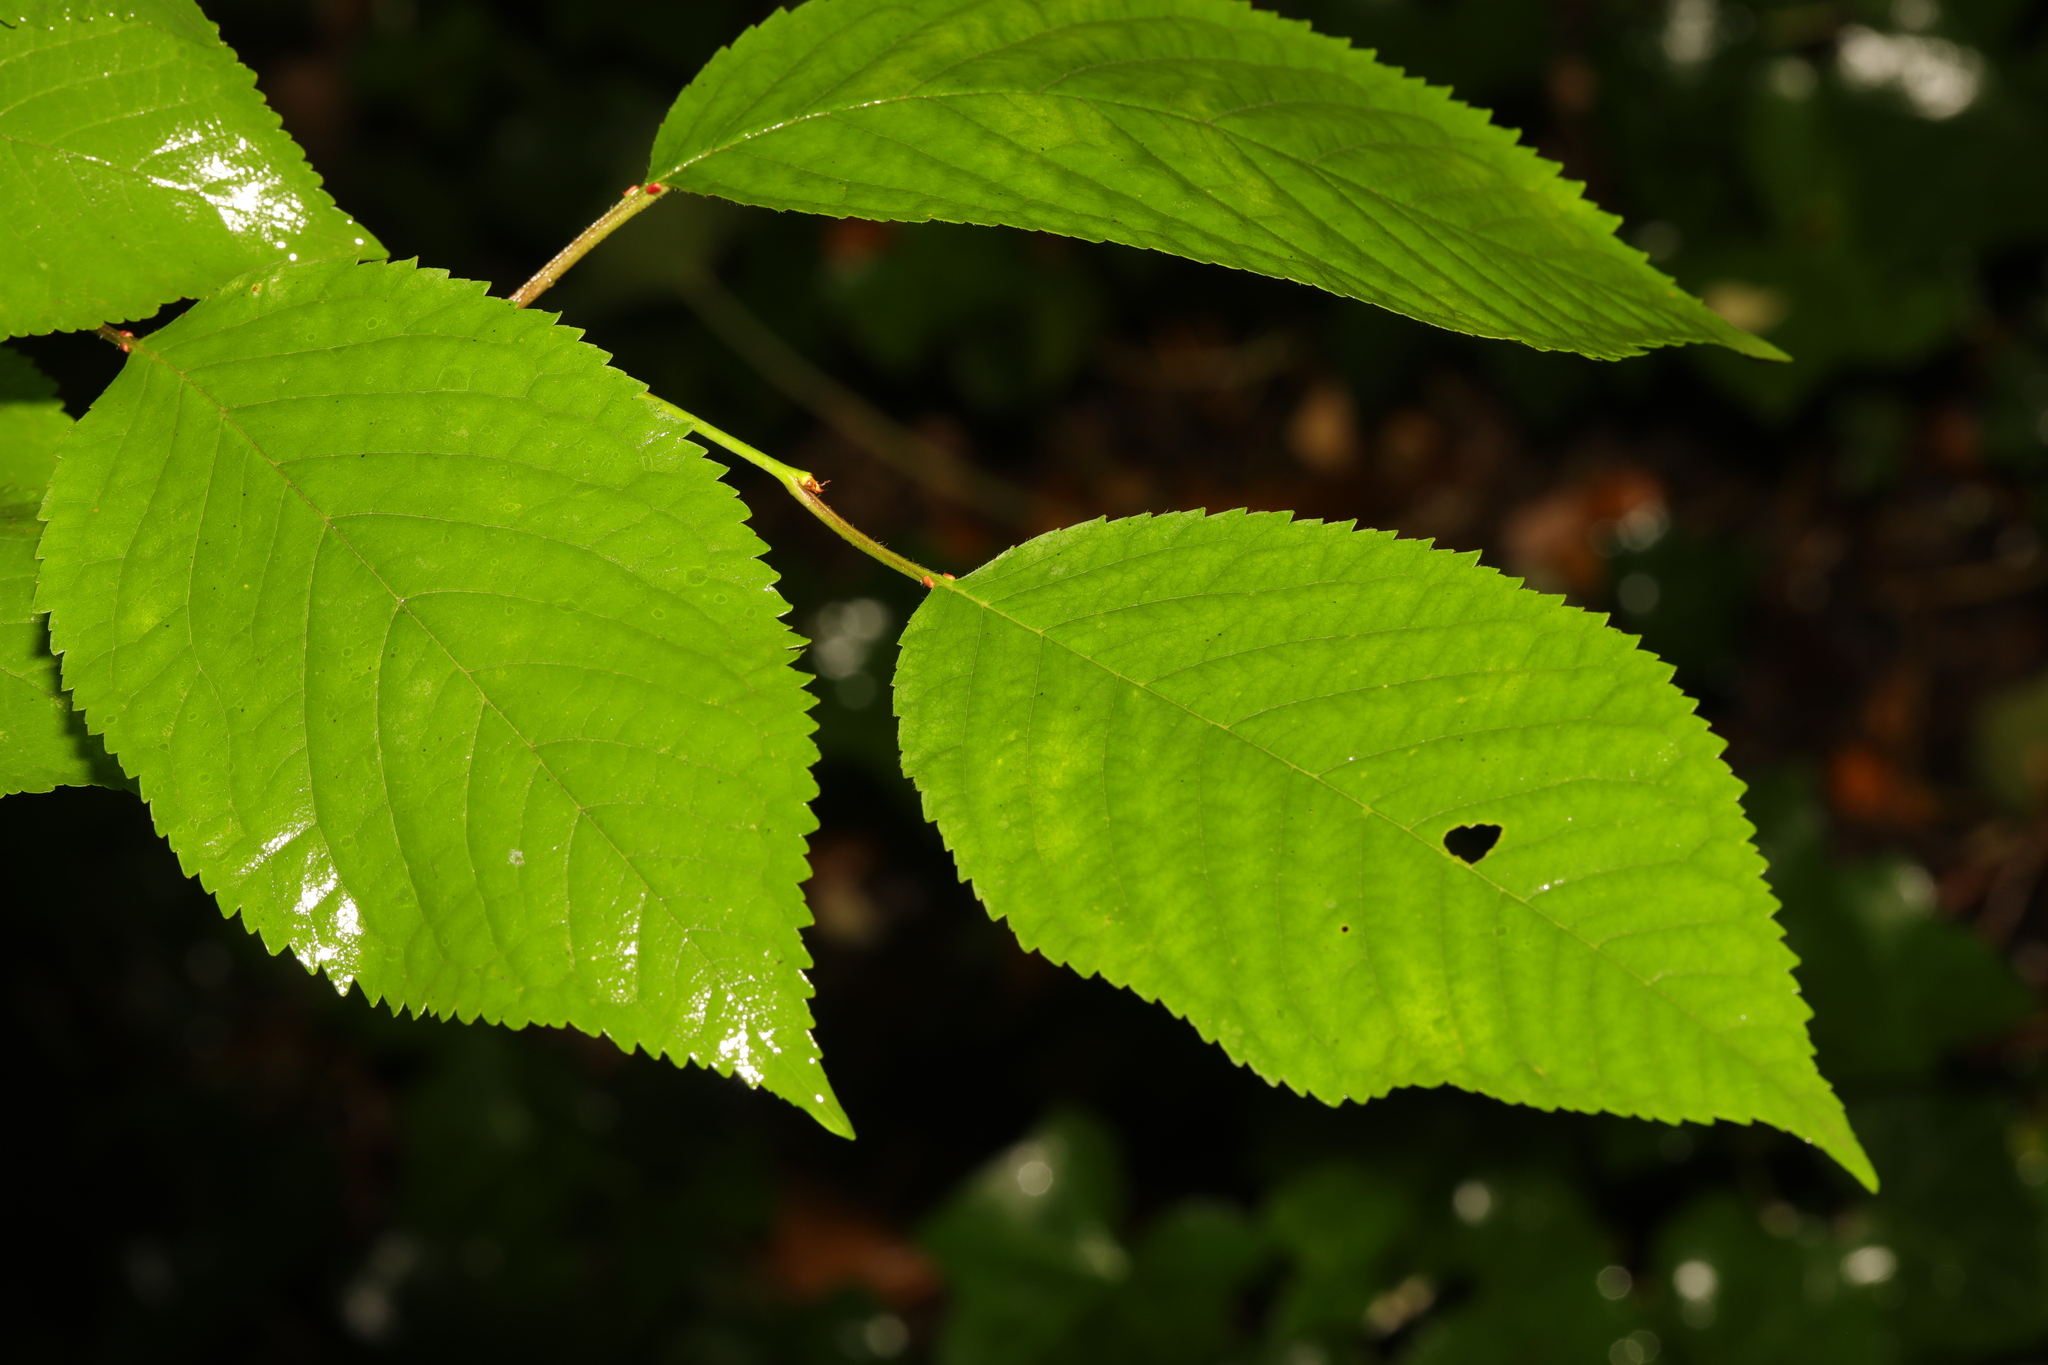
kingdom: Plantae
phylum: Tracheophyta
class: Magnoliopsida
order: Rosales
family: Rosaceae
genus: Prunus
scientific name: Prunus avium
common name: Sweet cherry
